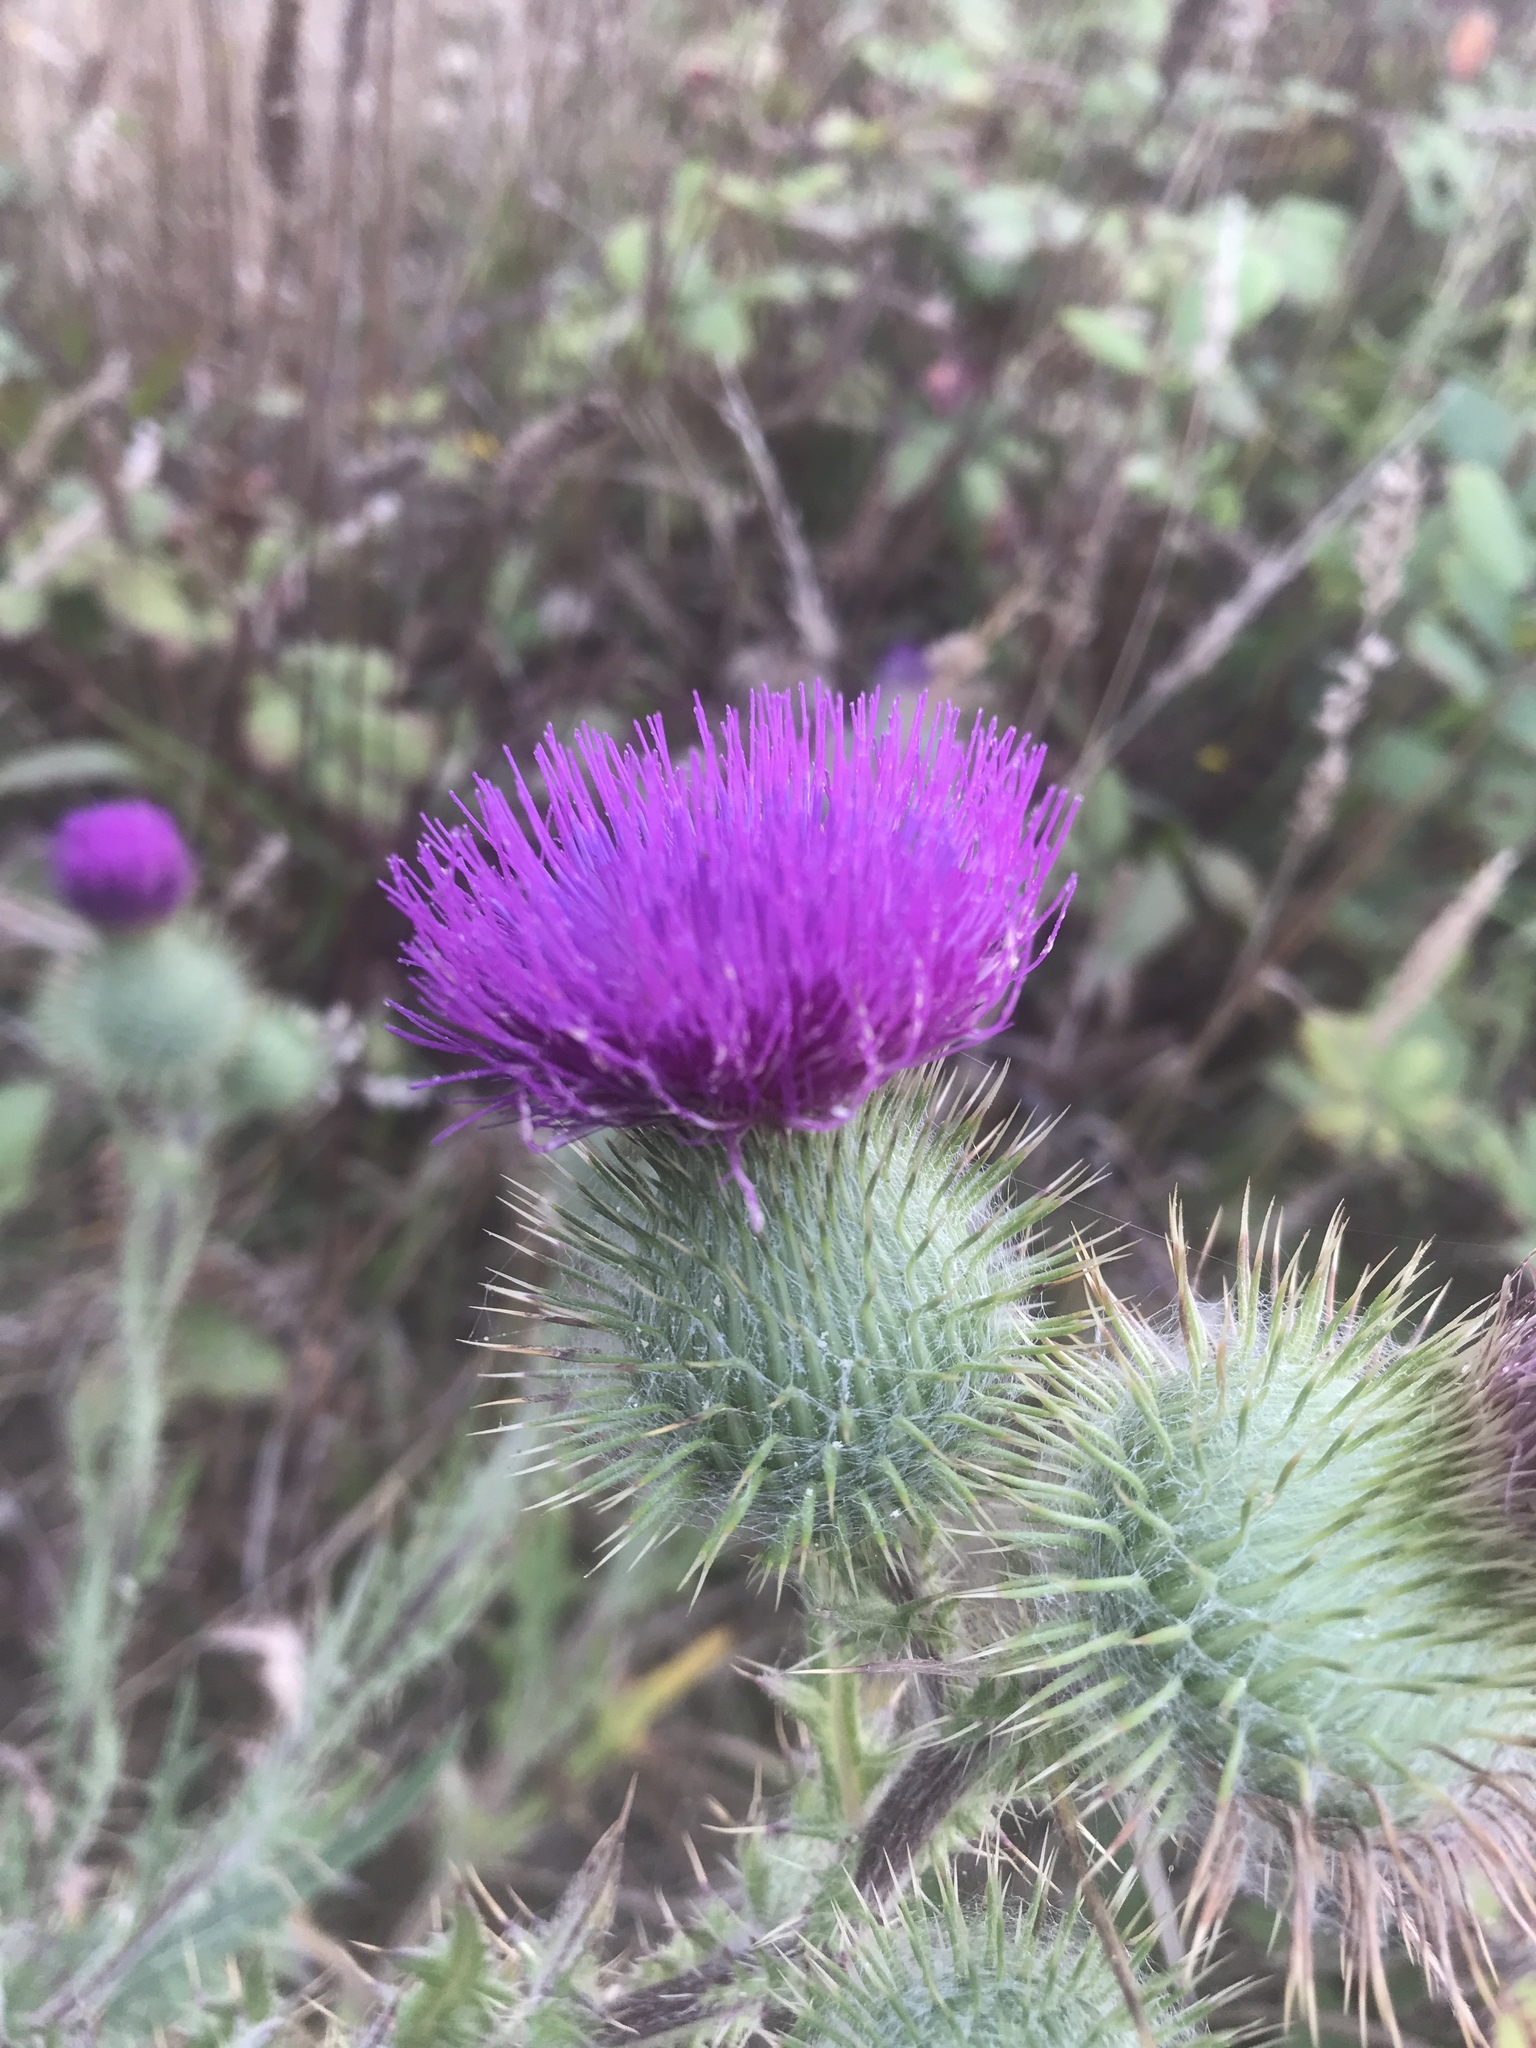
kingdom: Plantae
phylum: Tracheophyta
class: Magnoliopsida
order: Asterales
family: Asteraceae
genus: Cirsium
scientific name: Cirsium vulgare
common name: Bull thistle
